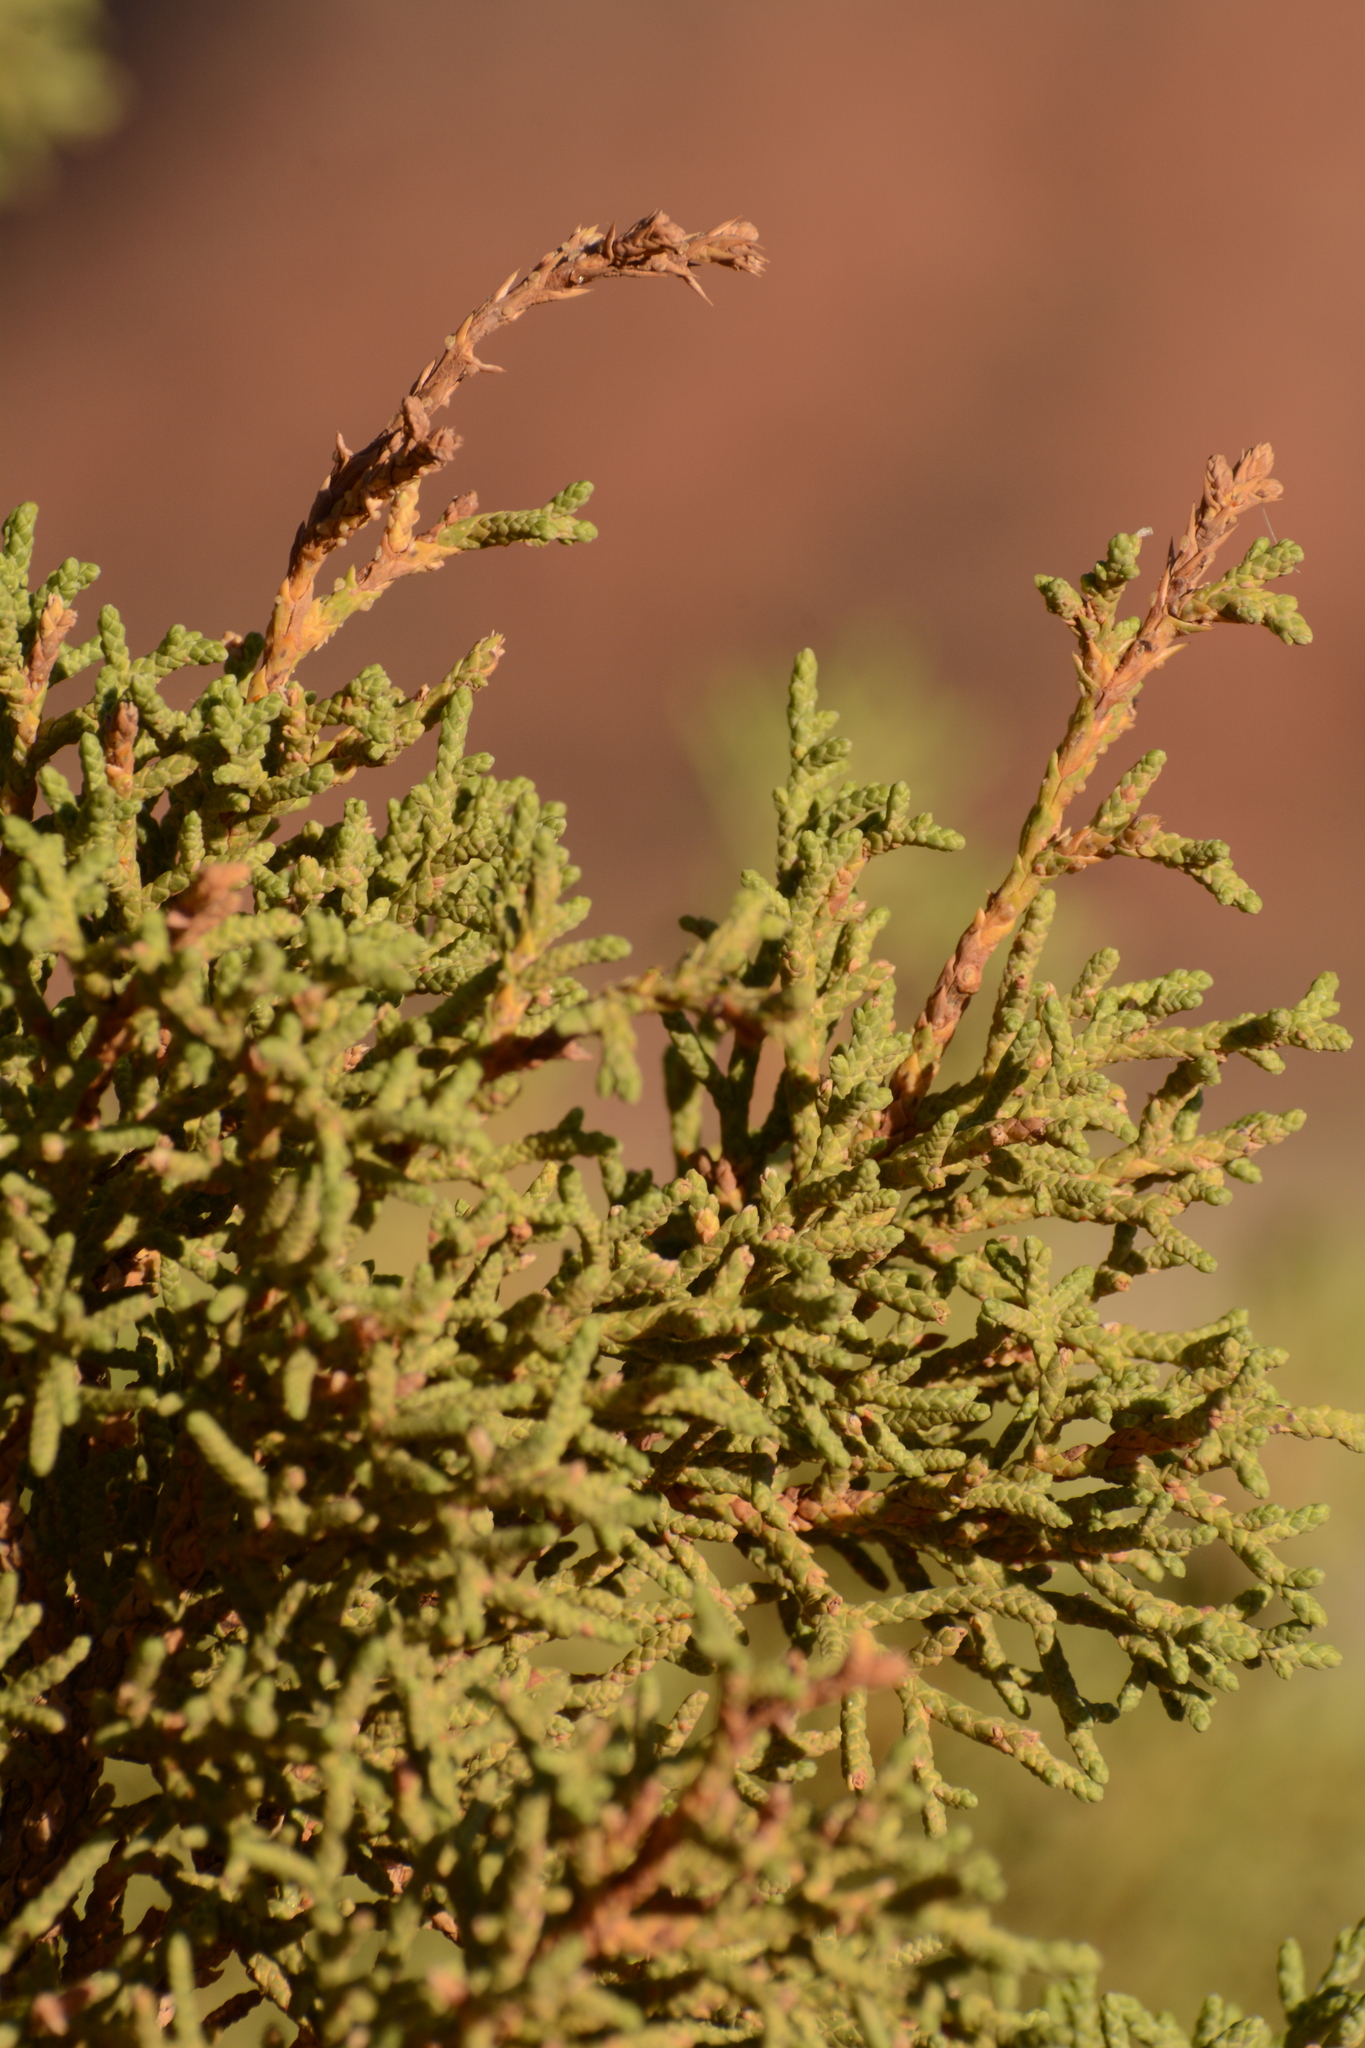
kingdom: Plantae
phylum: Tracheophyta
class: Pinopsida
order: Pinales
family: Cupressaceae
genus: Juniperus
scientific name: Juniperus osteosperma
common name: Utah juniper
